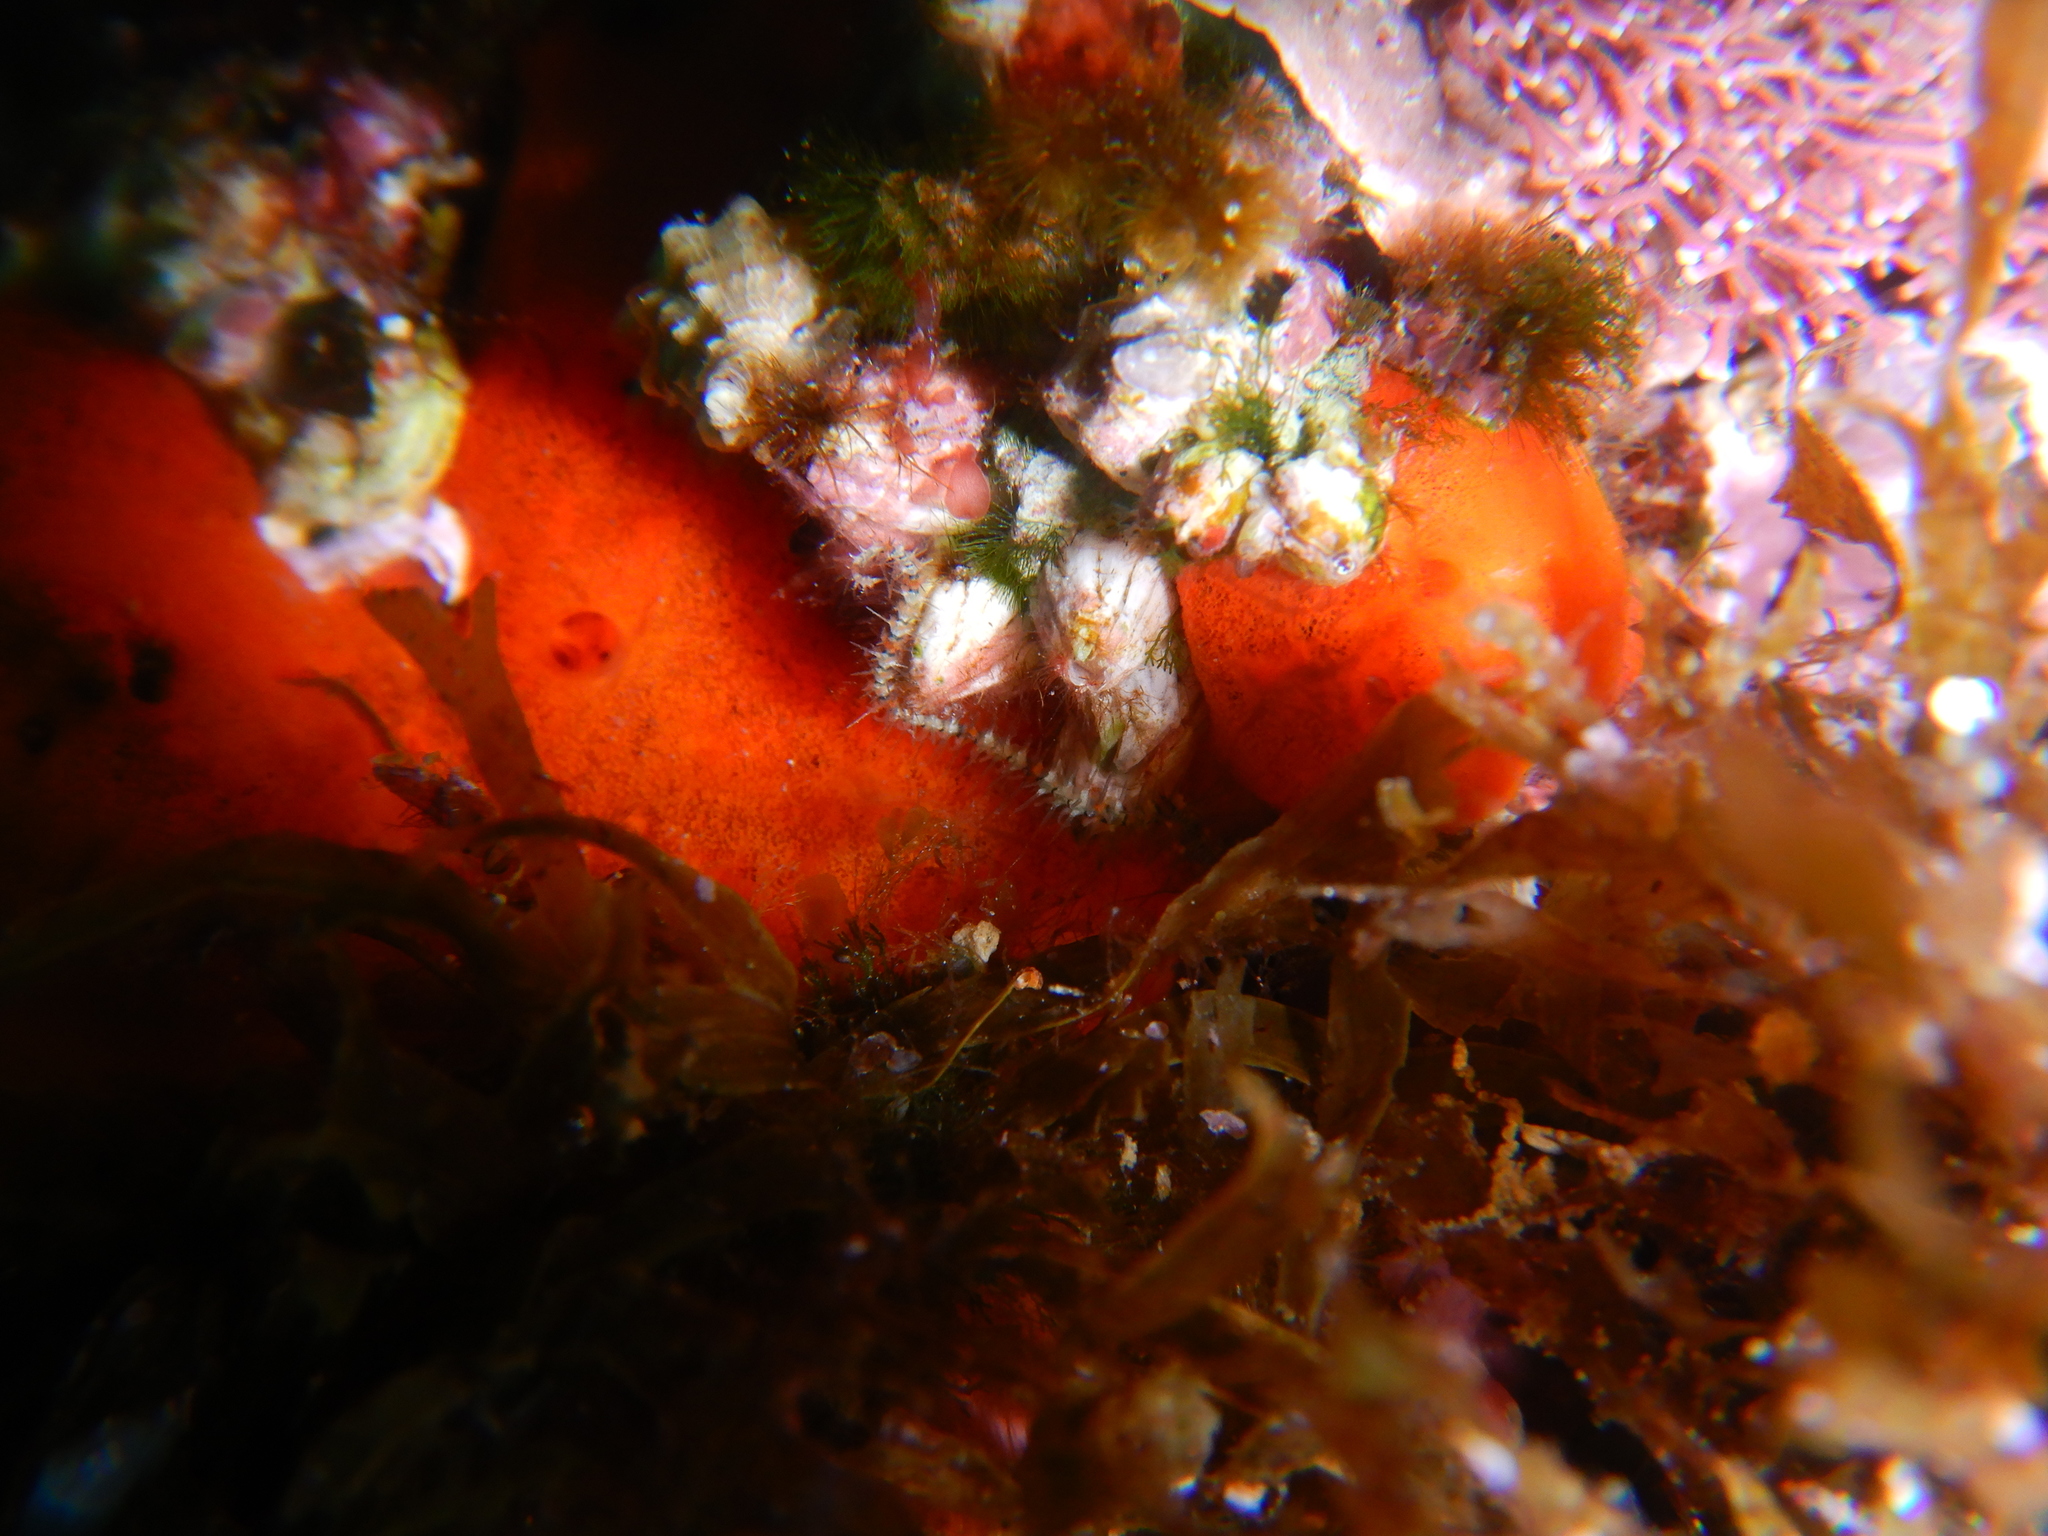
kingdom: Animalia
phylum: Porifera
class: Demospongiae
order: Poecilosclerida
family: Crambeidae
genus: Crambe
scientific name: Crambe crambe
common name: Orange-red encrusting sponge
